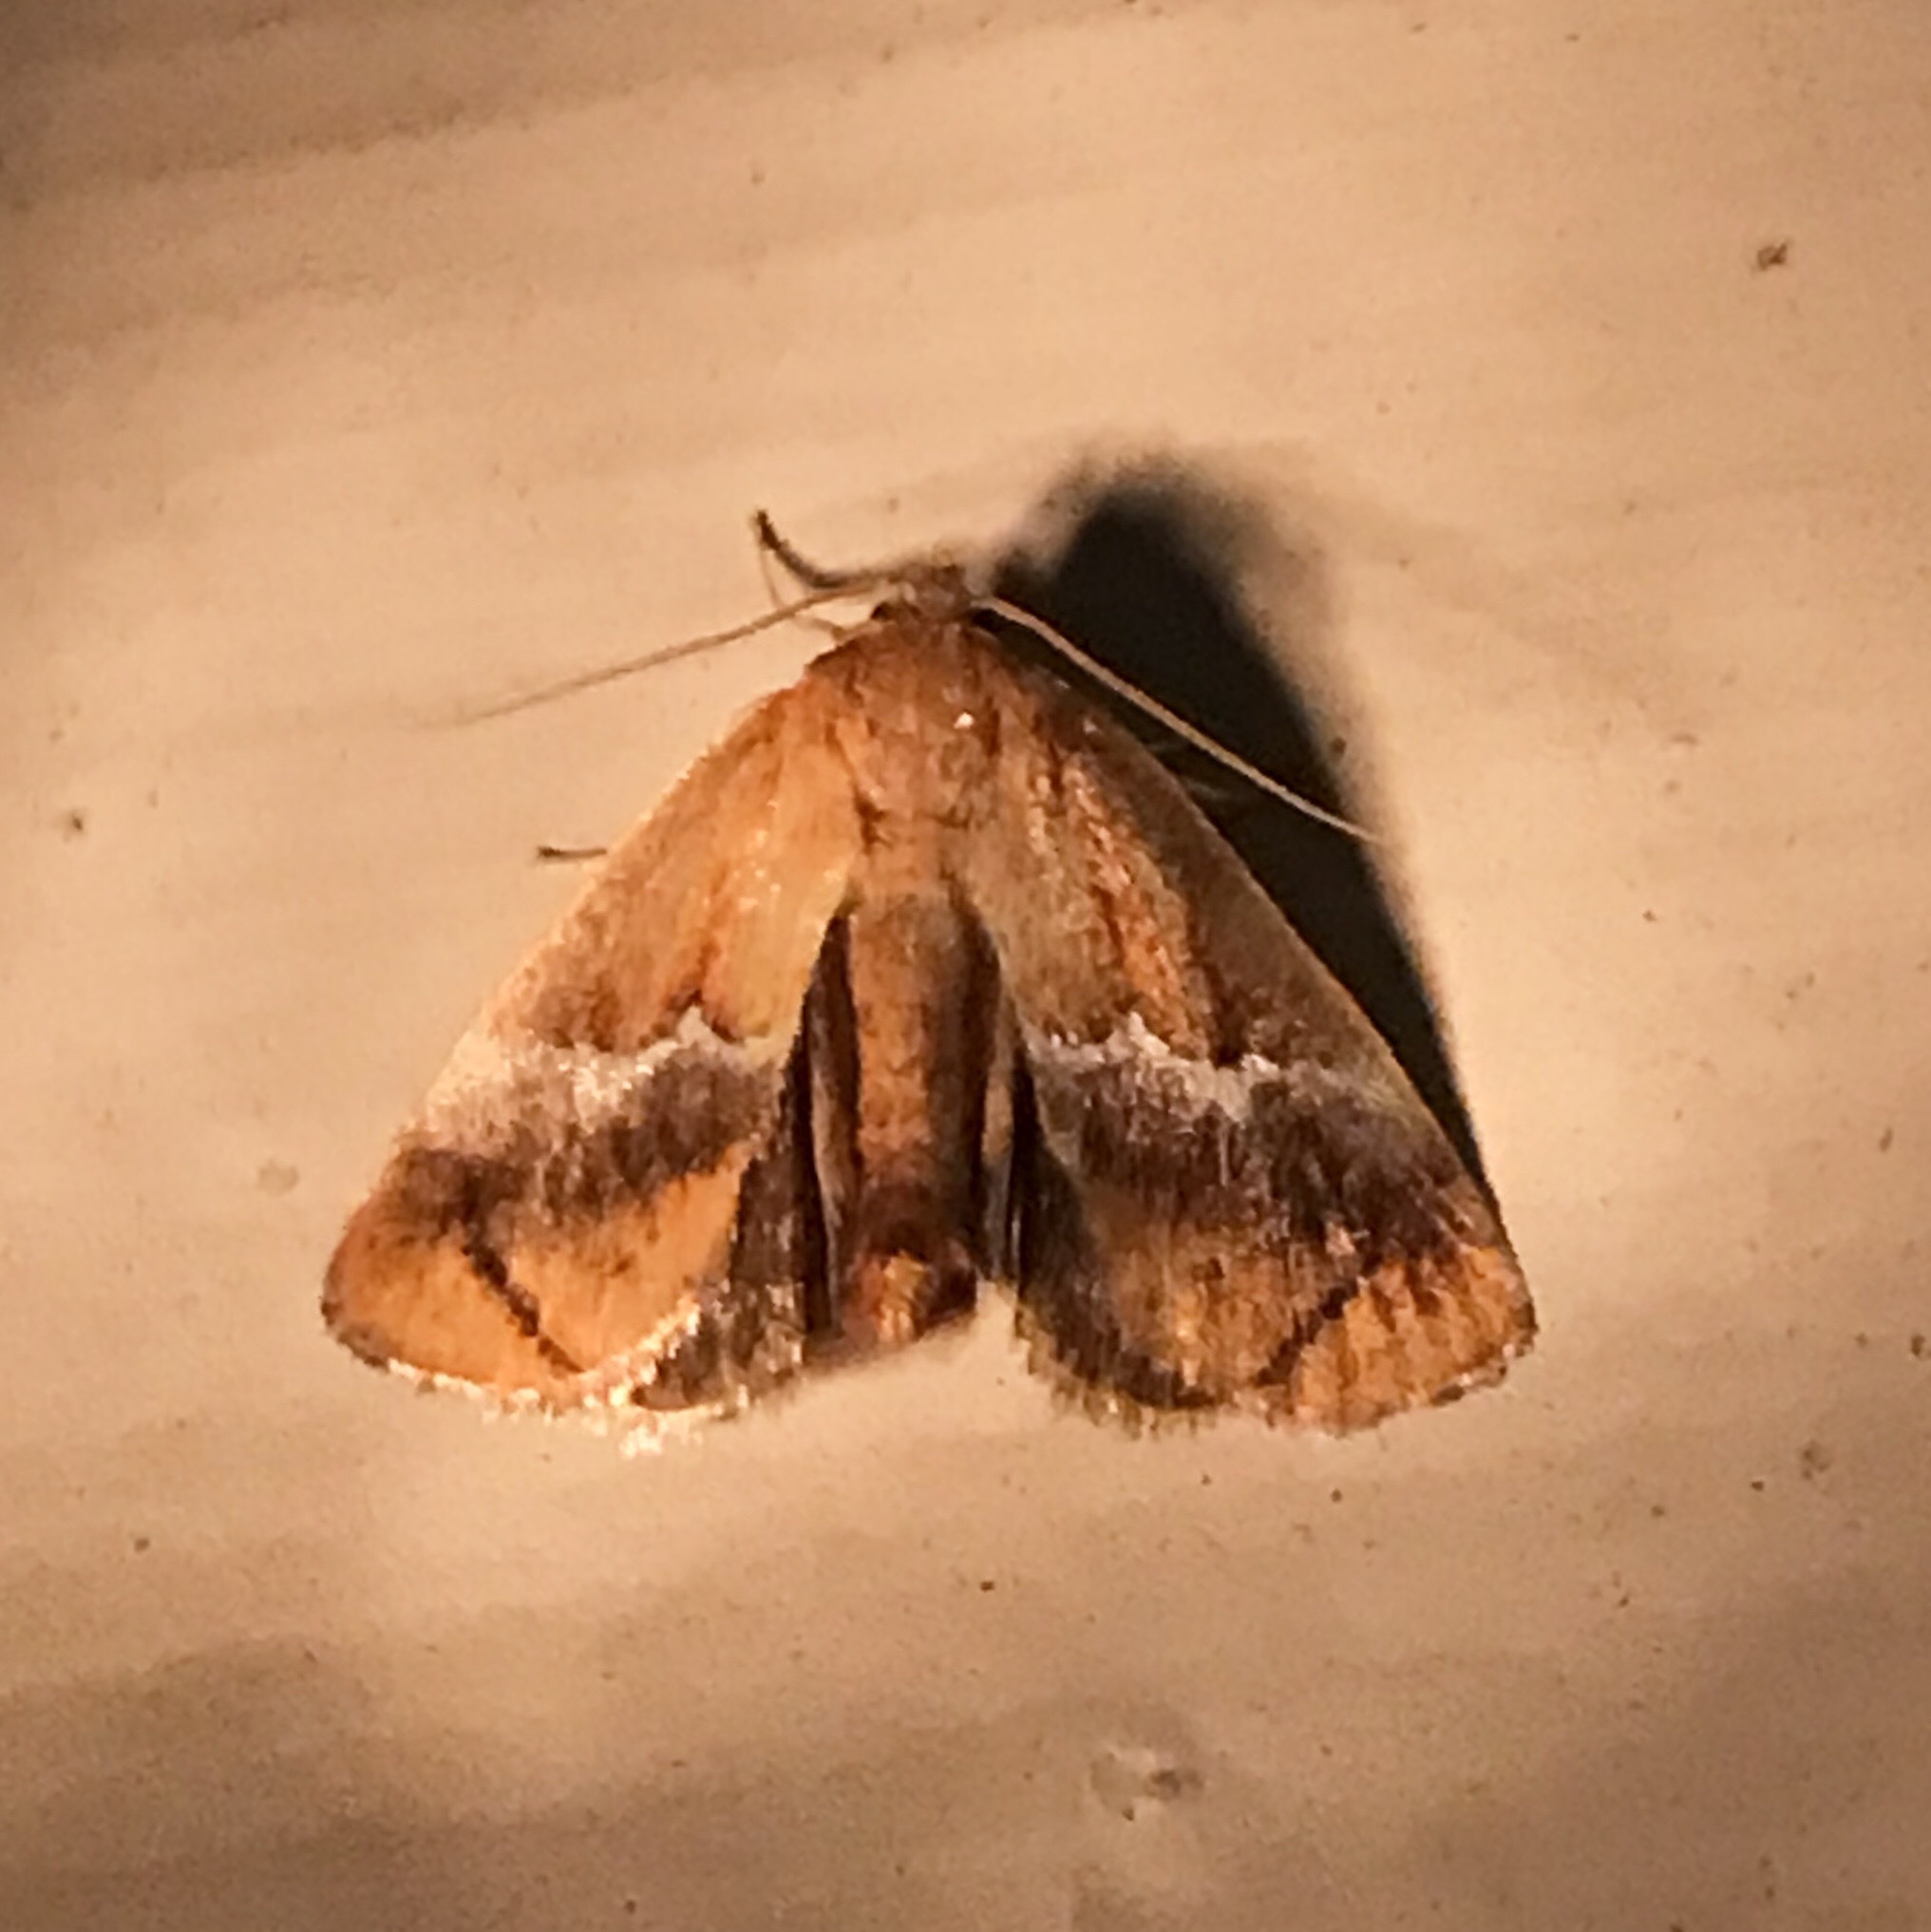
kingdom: Animalia
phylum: Arthropoda
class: Insecta
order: Lepidoptera
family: Limacodidae
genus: Lithacodes
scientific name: Lithacodes fasciola
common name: Yellow-shouldered slug moth
